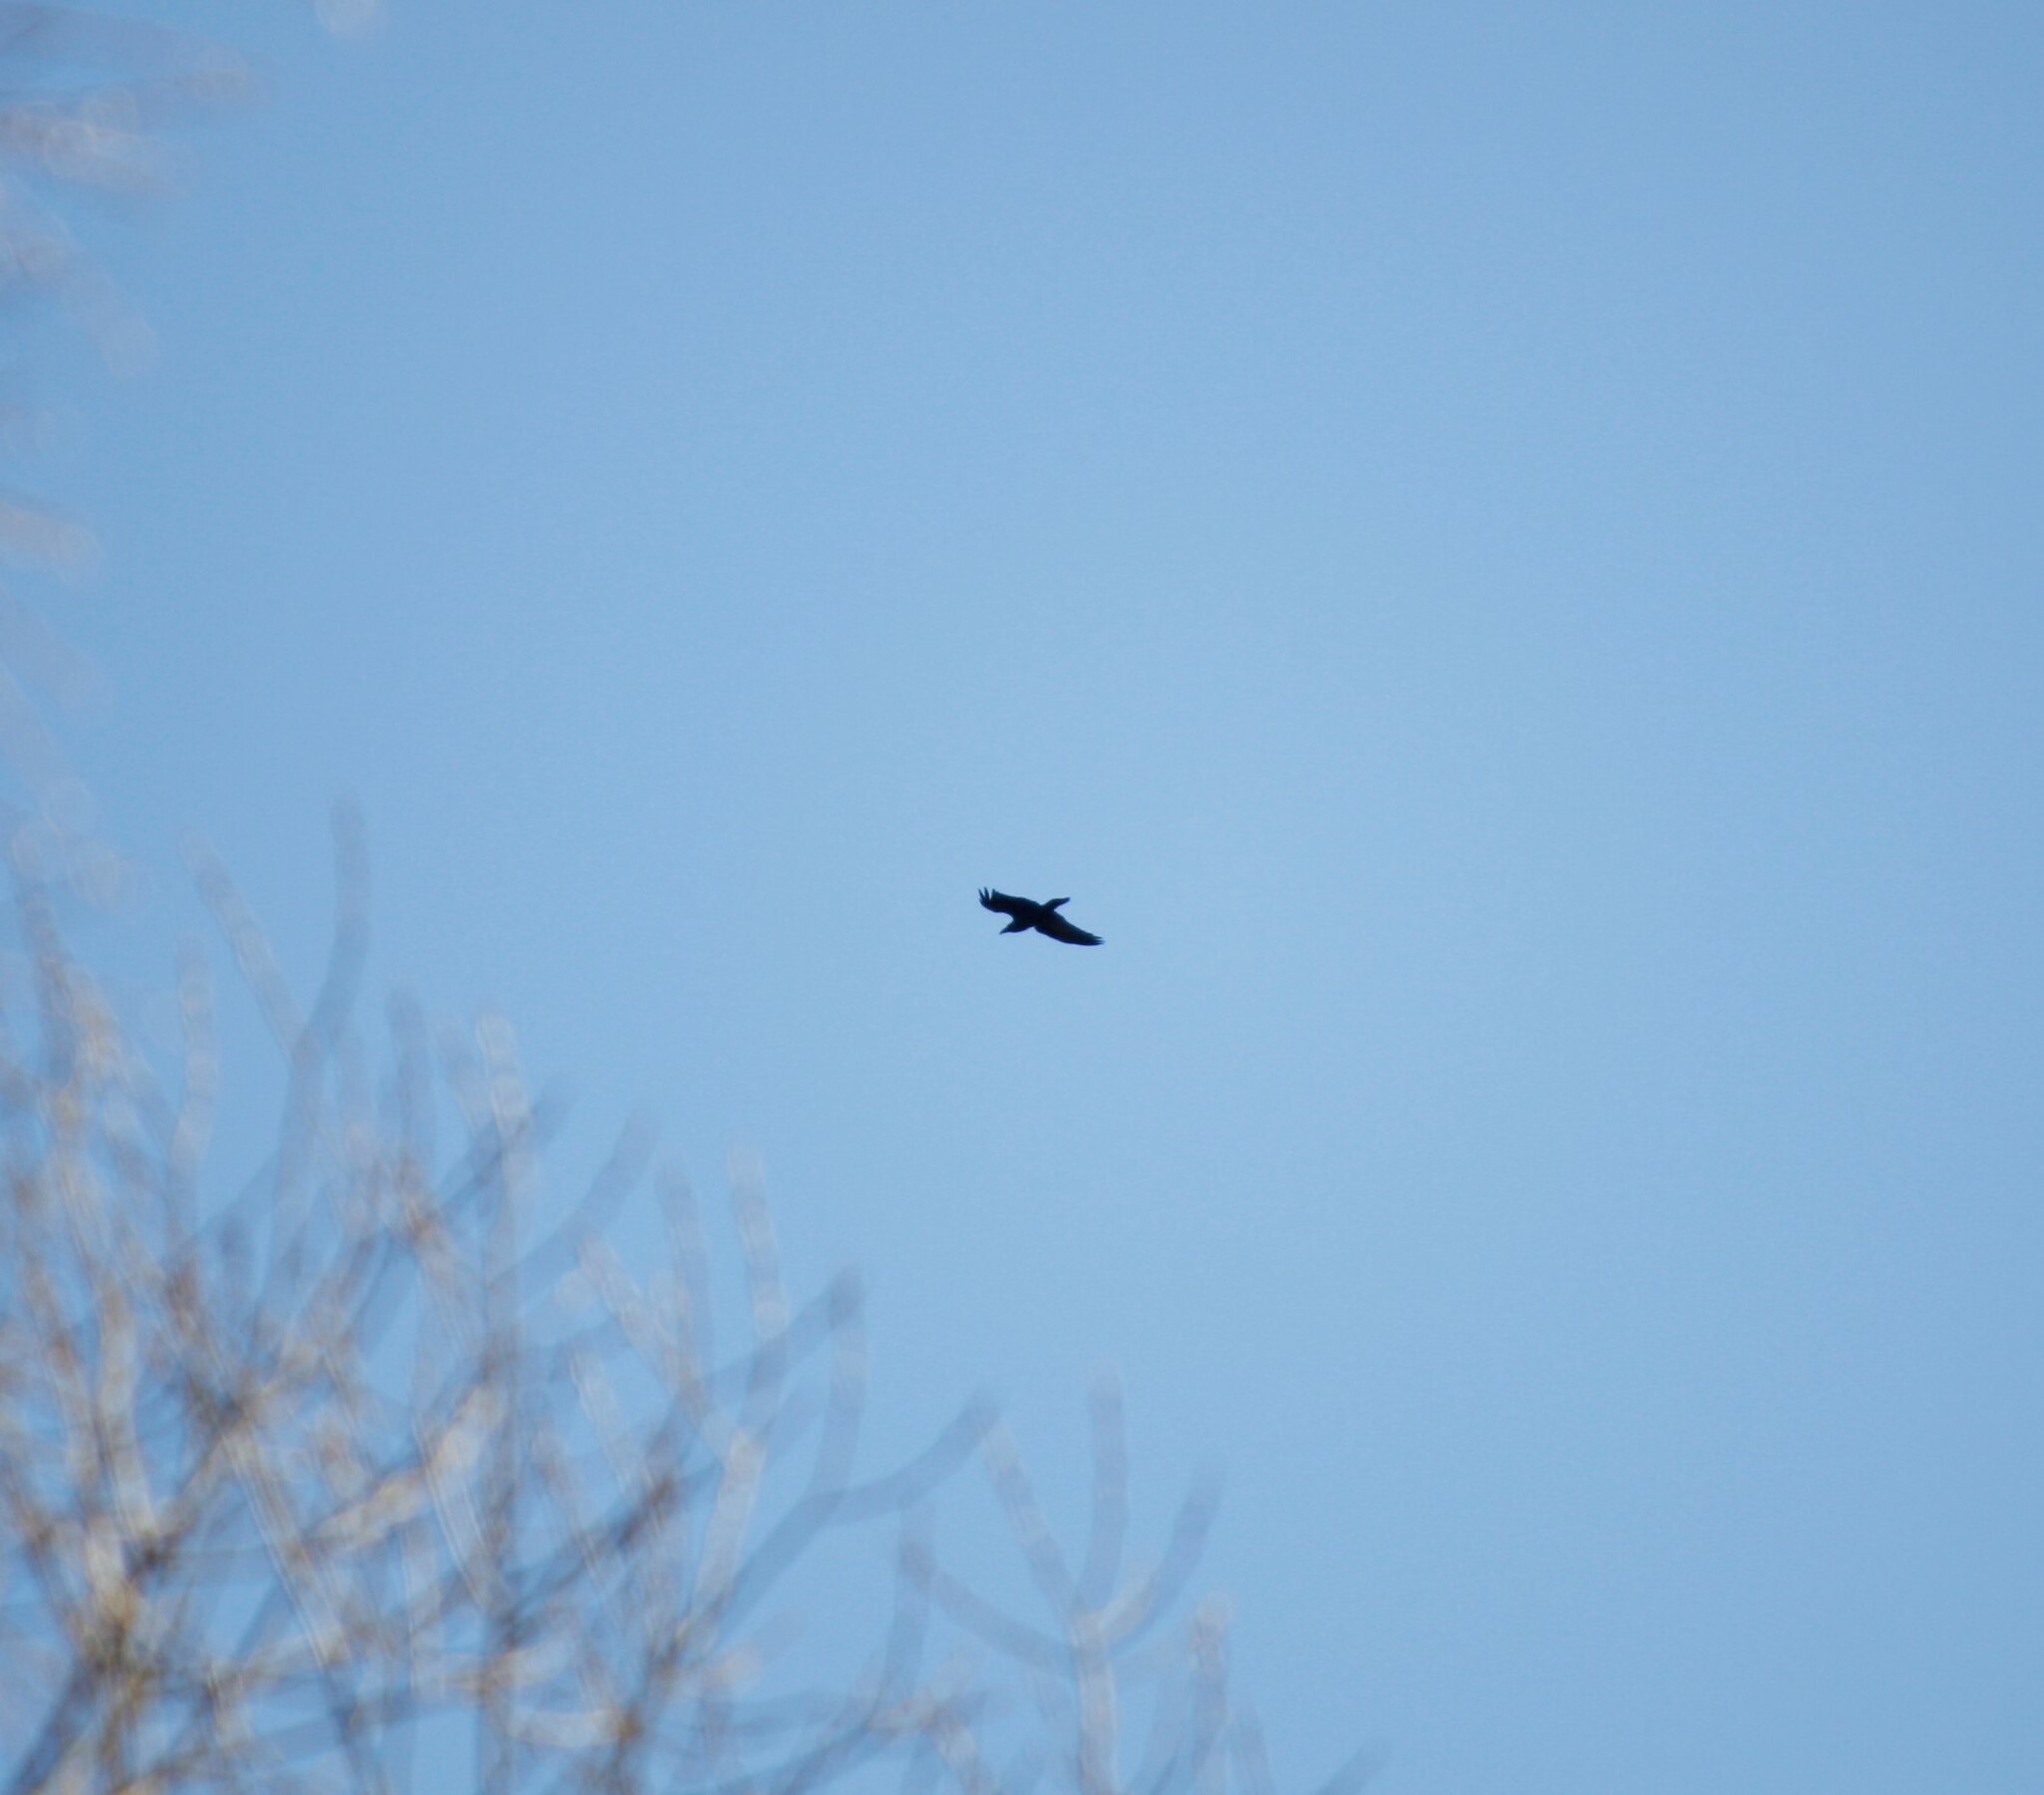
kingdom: Animalia
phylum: Chordata
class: Aves
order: Passeriformes
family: Corvidae
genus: Corvus
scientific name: Corvus corax
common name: Common raven
